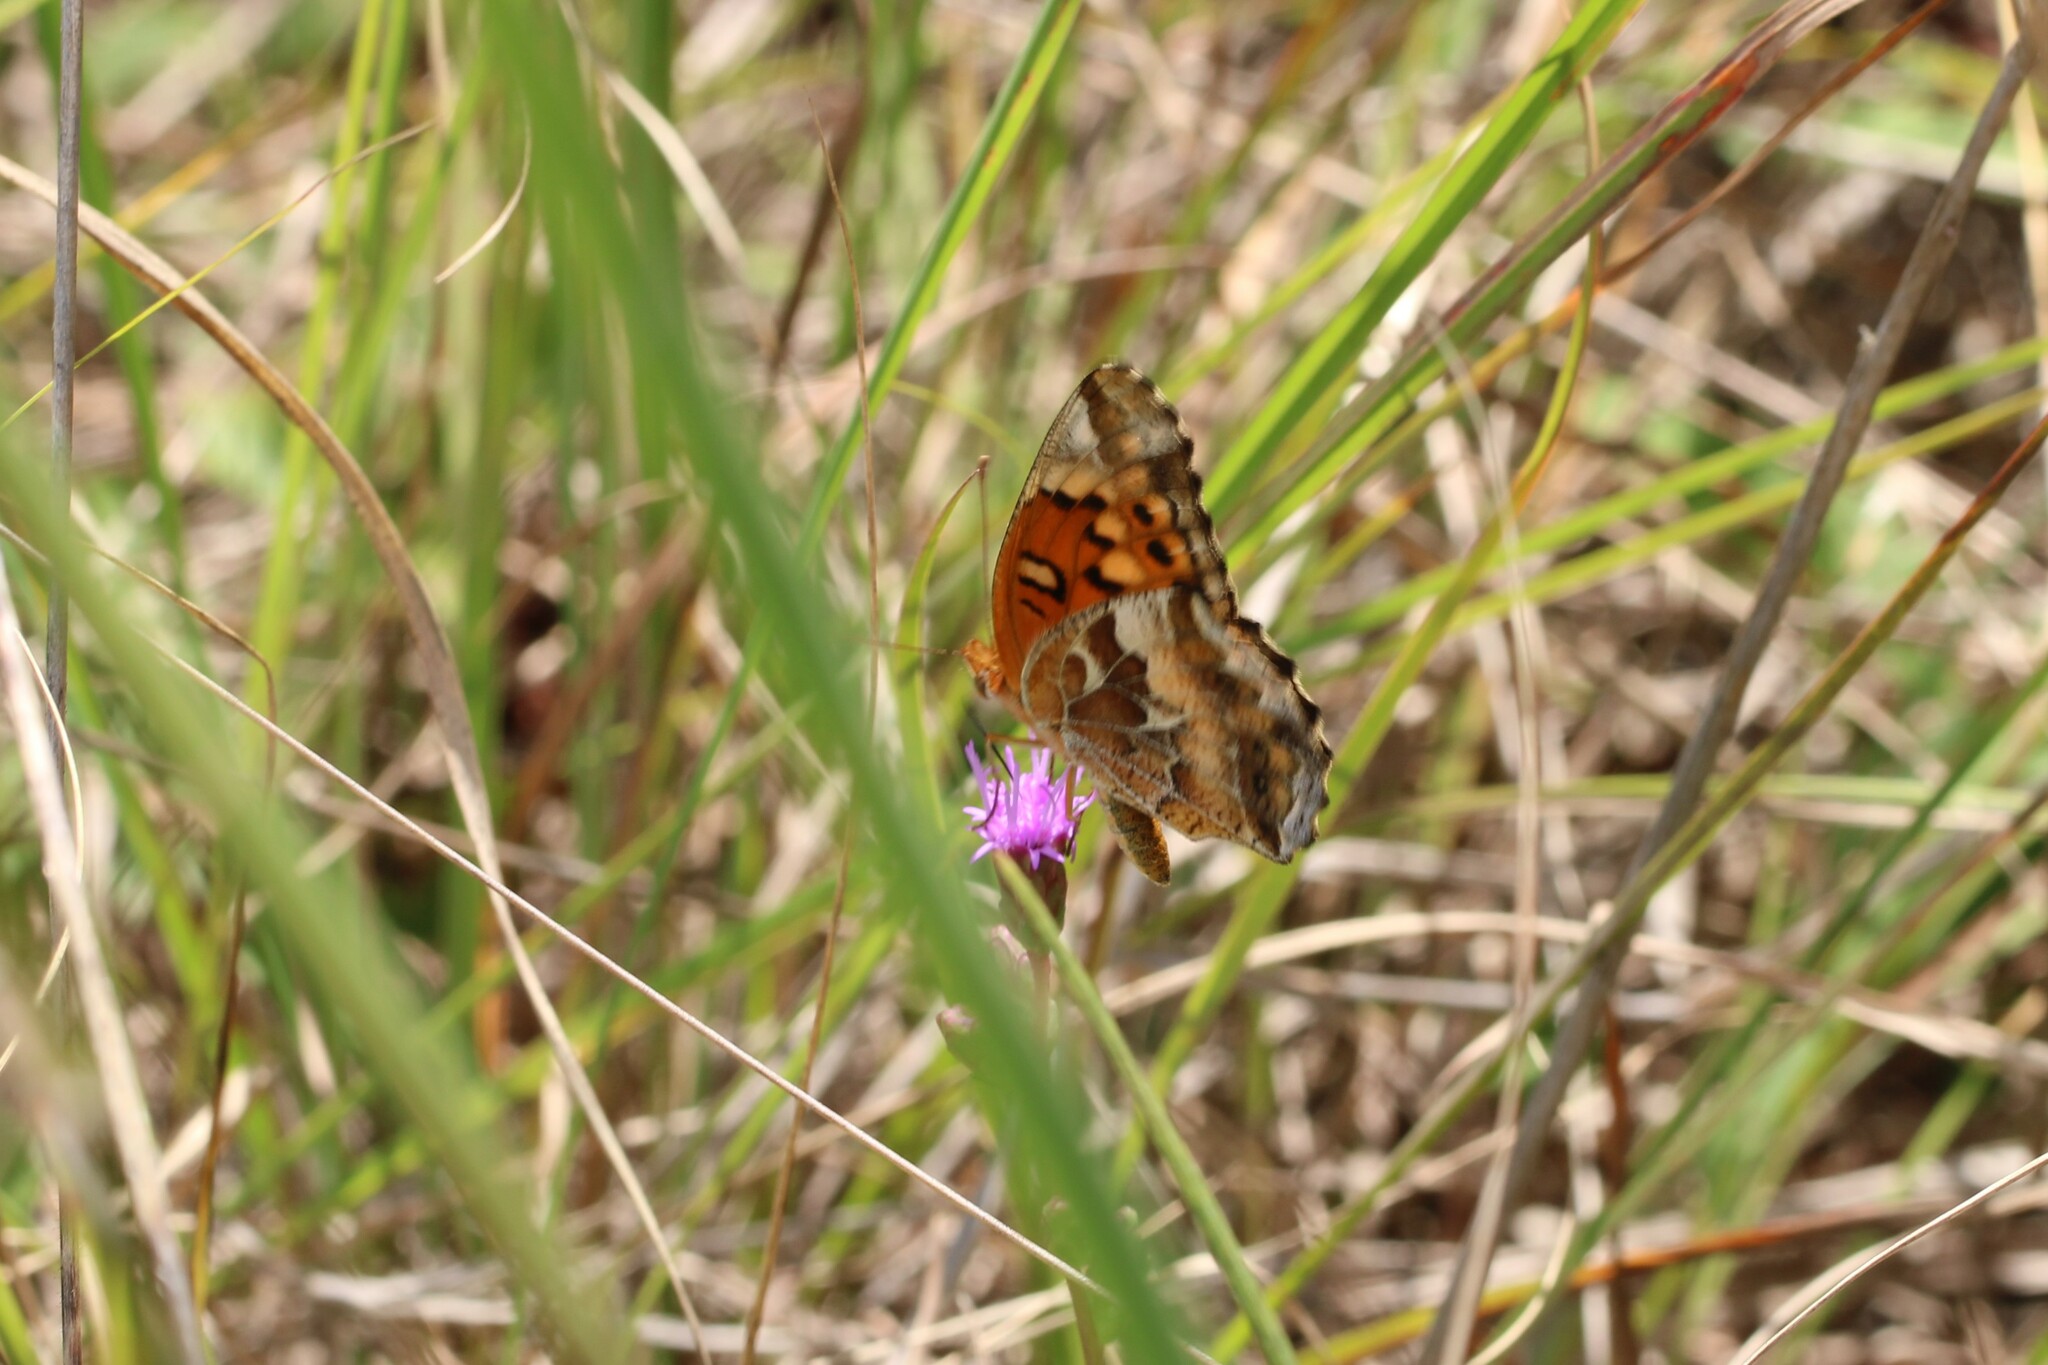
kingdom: Animalia
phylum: Arthropoda
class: Insecta
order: Lepidoptera
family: Nymphalidae
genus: Euptoieta
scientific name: Euptoieta claudia
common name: Variegated fritillary
